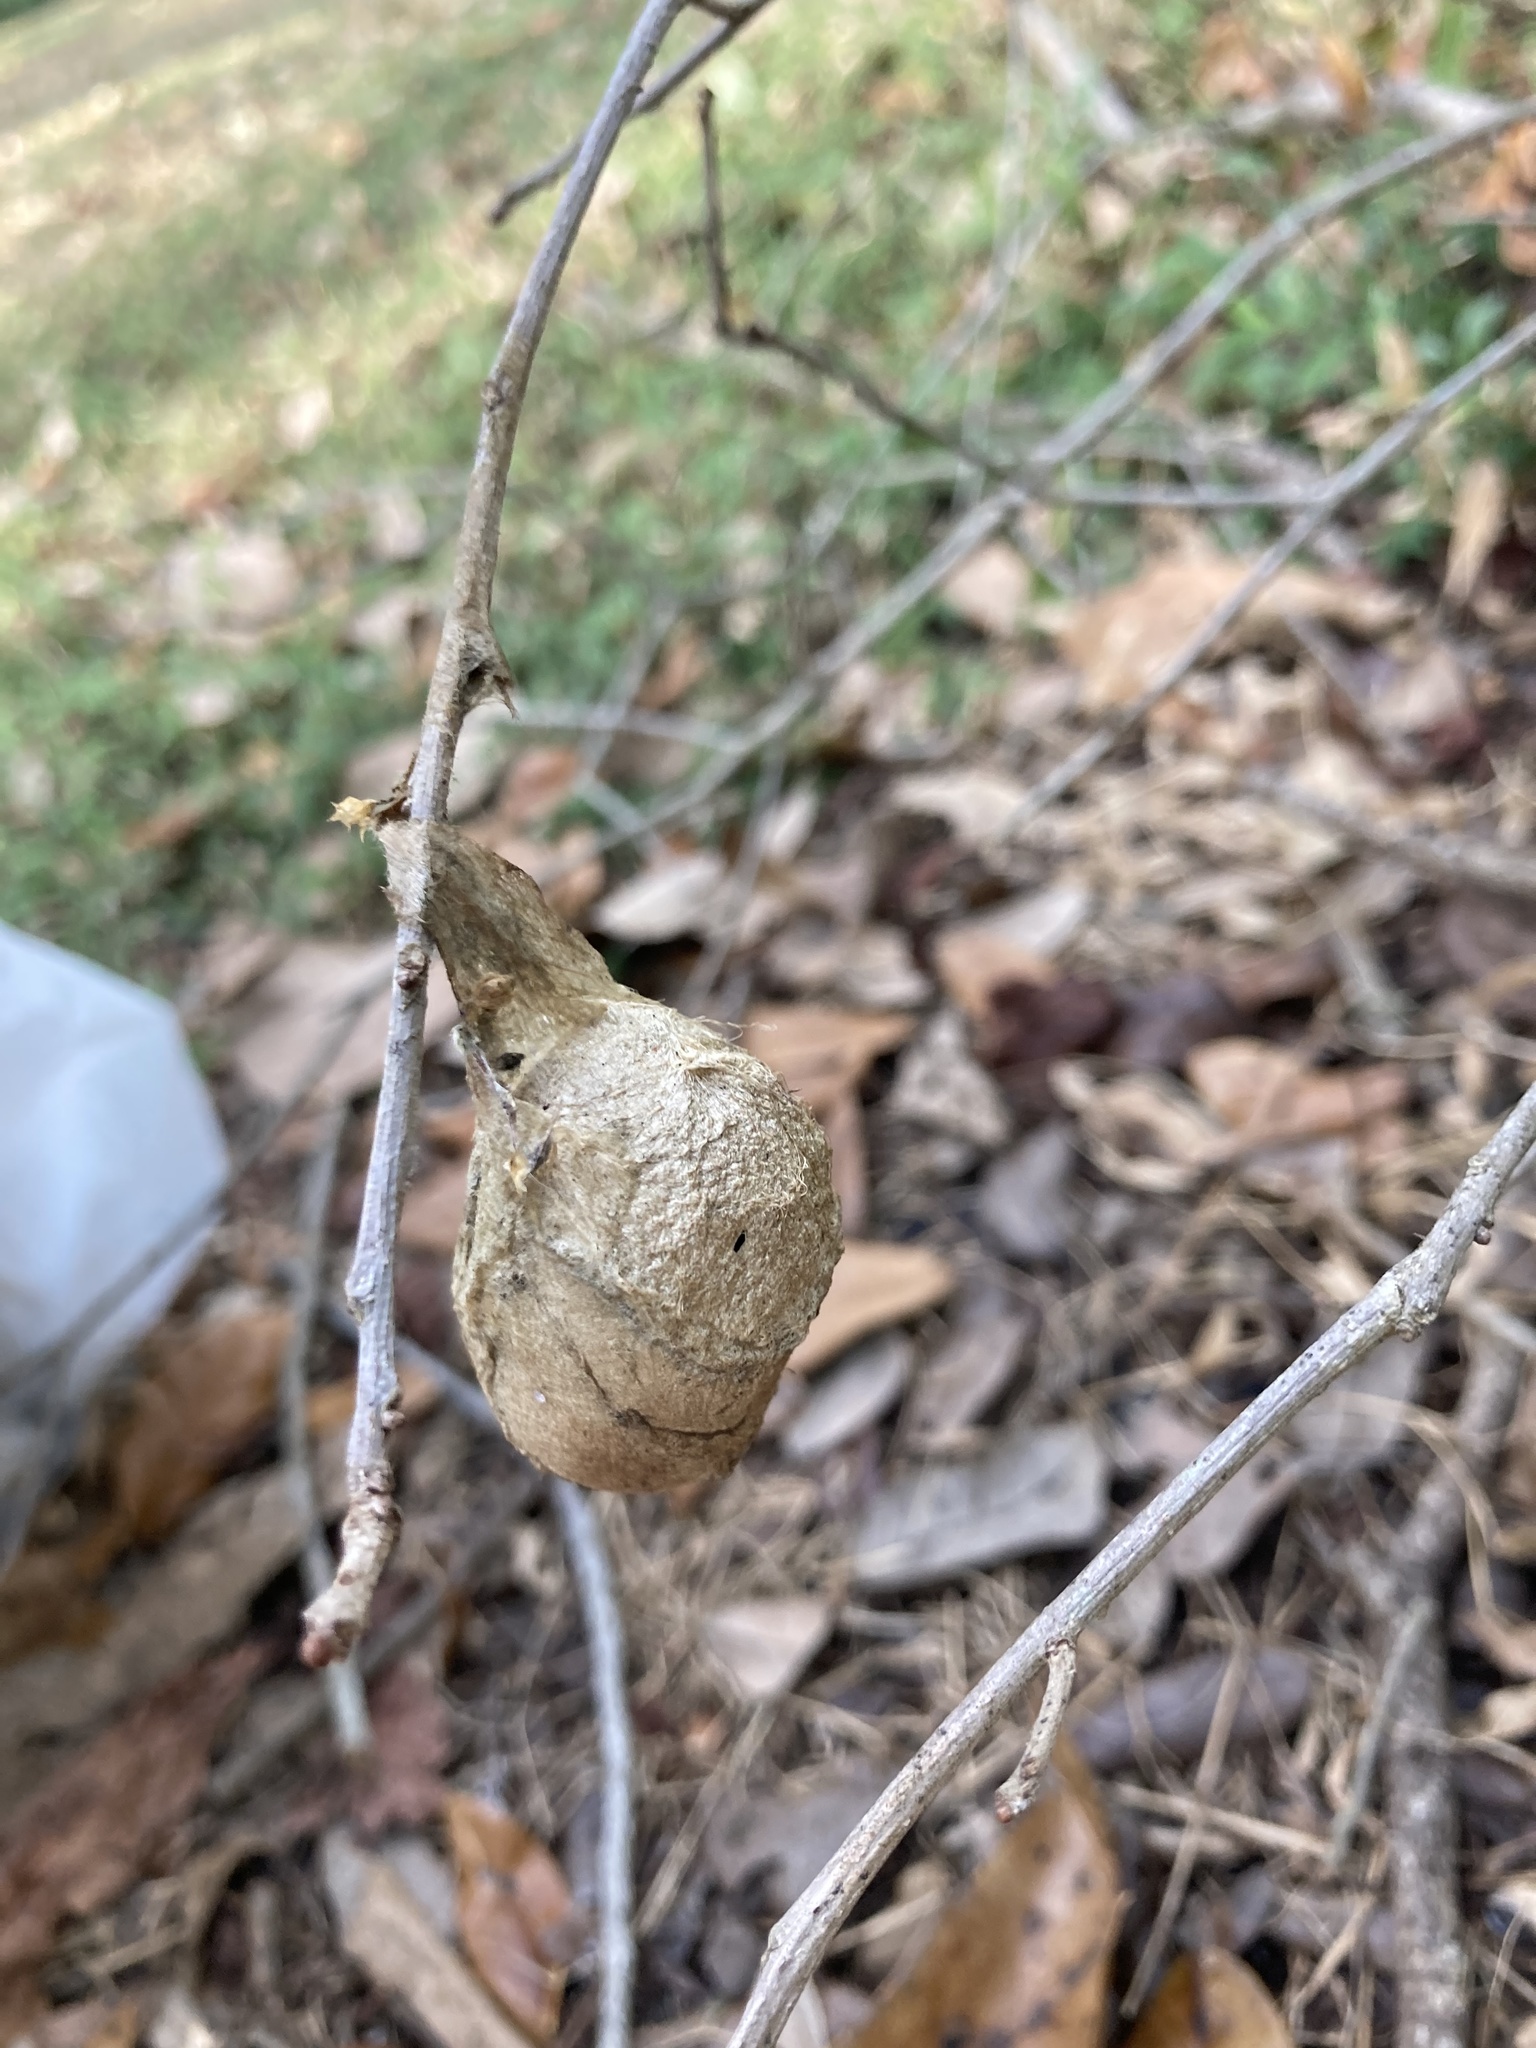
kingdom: Animalia
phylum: Arthropoda
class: Insecta
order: Lepidoptera
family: Saturniidae
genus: Antheraea
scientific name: Antheraea polyphemus
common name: Polyphemus moth
